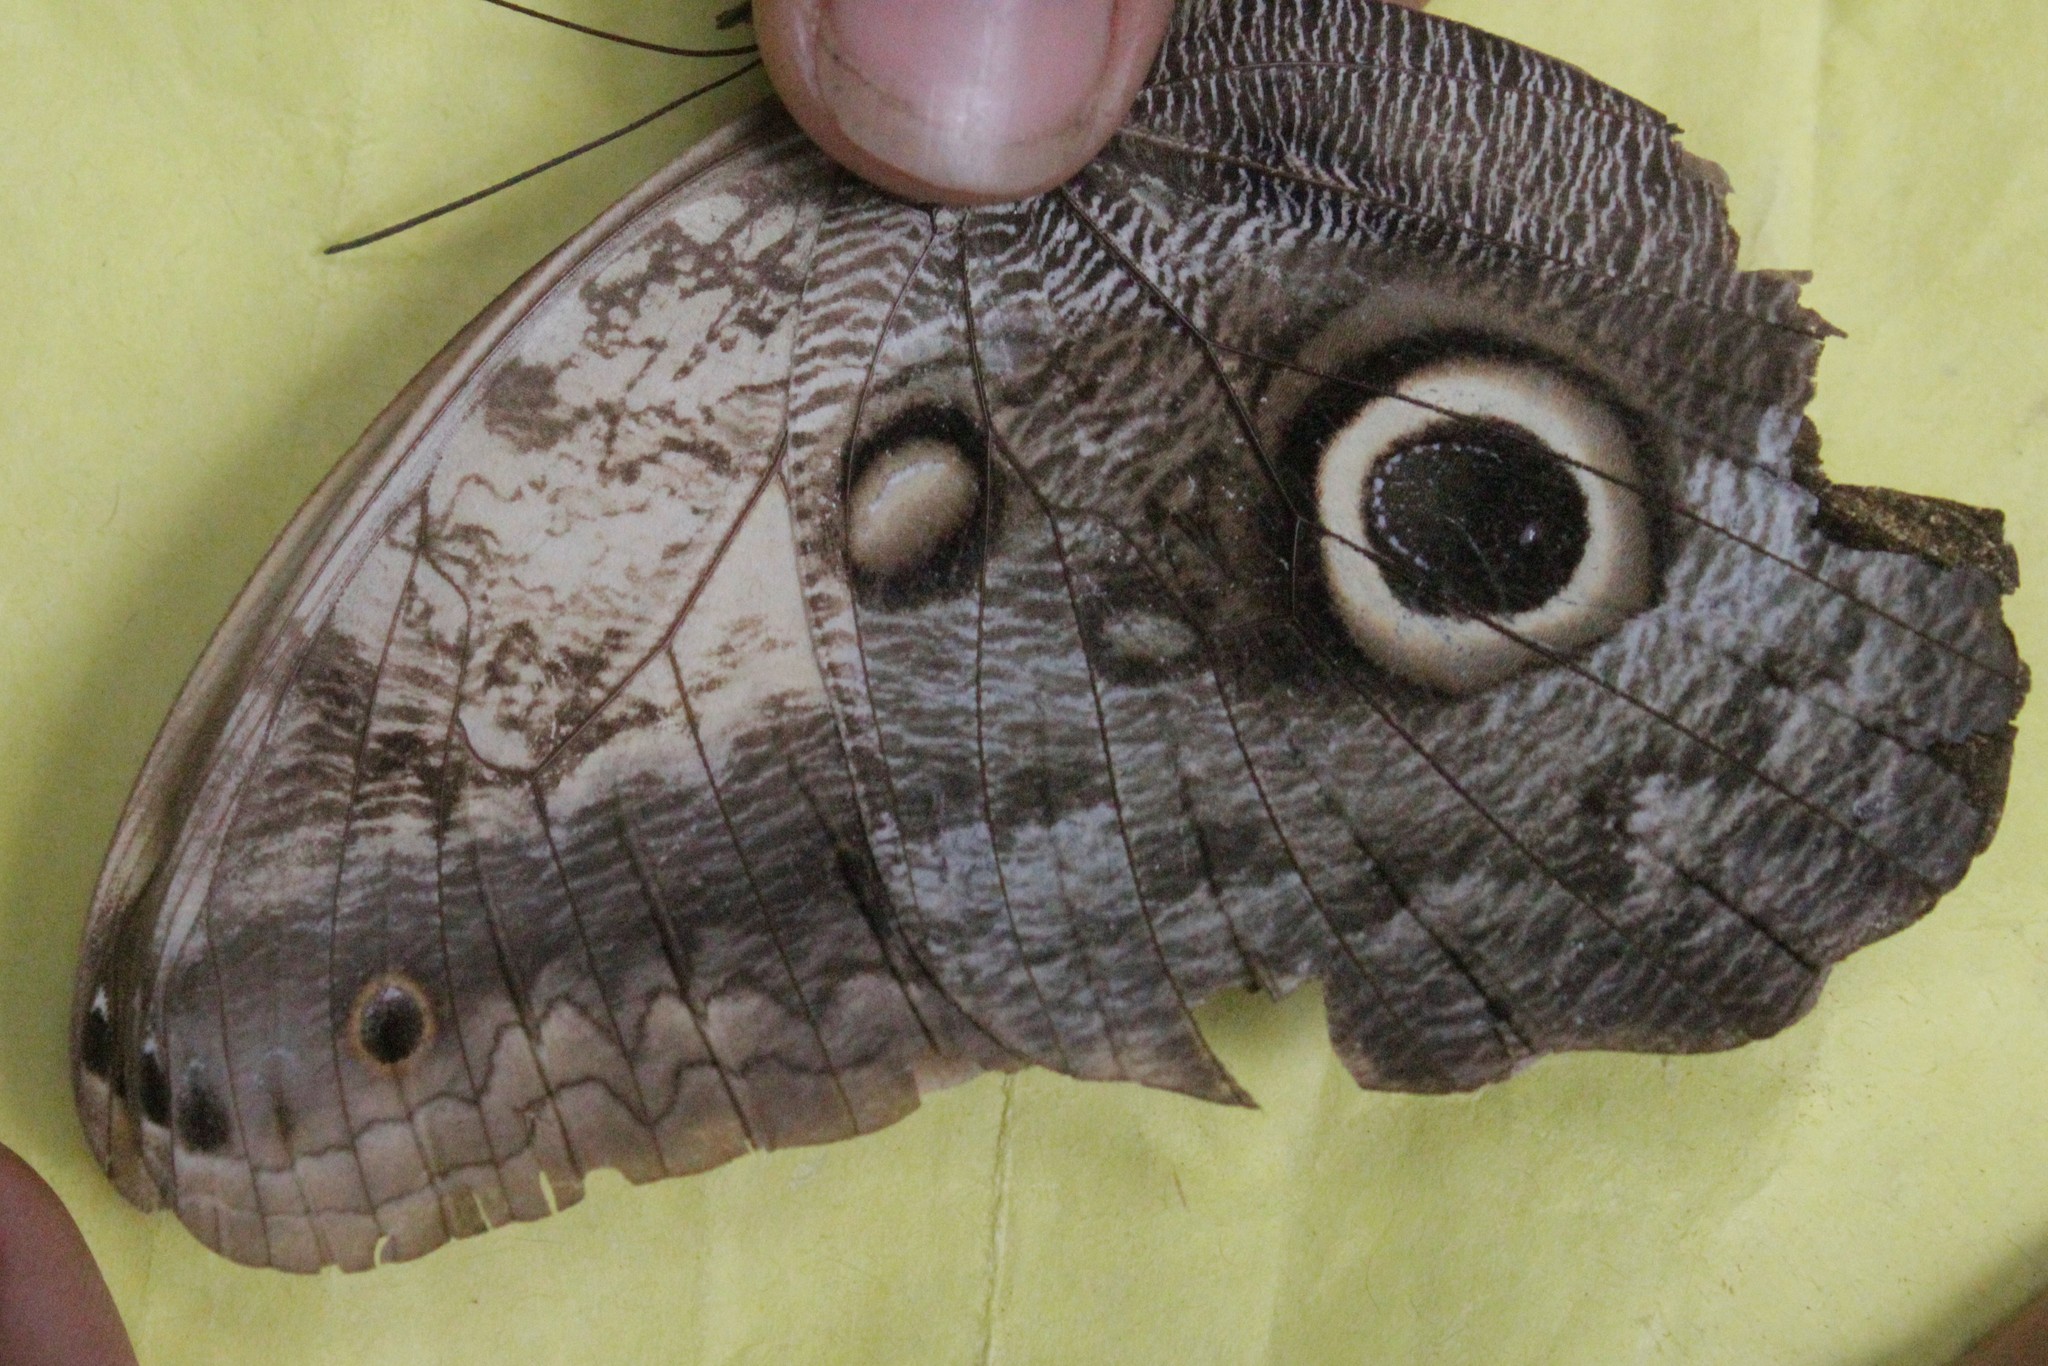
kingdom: Animalia
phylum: Arthropoda
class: Insecta
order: Lepidoptera
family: Nymphalidae
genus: Caligo
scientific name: Caligo telamonius
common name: Pale owl-butterfly
